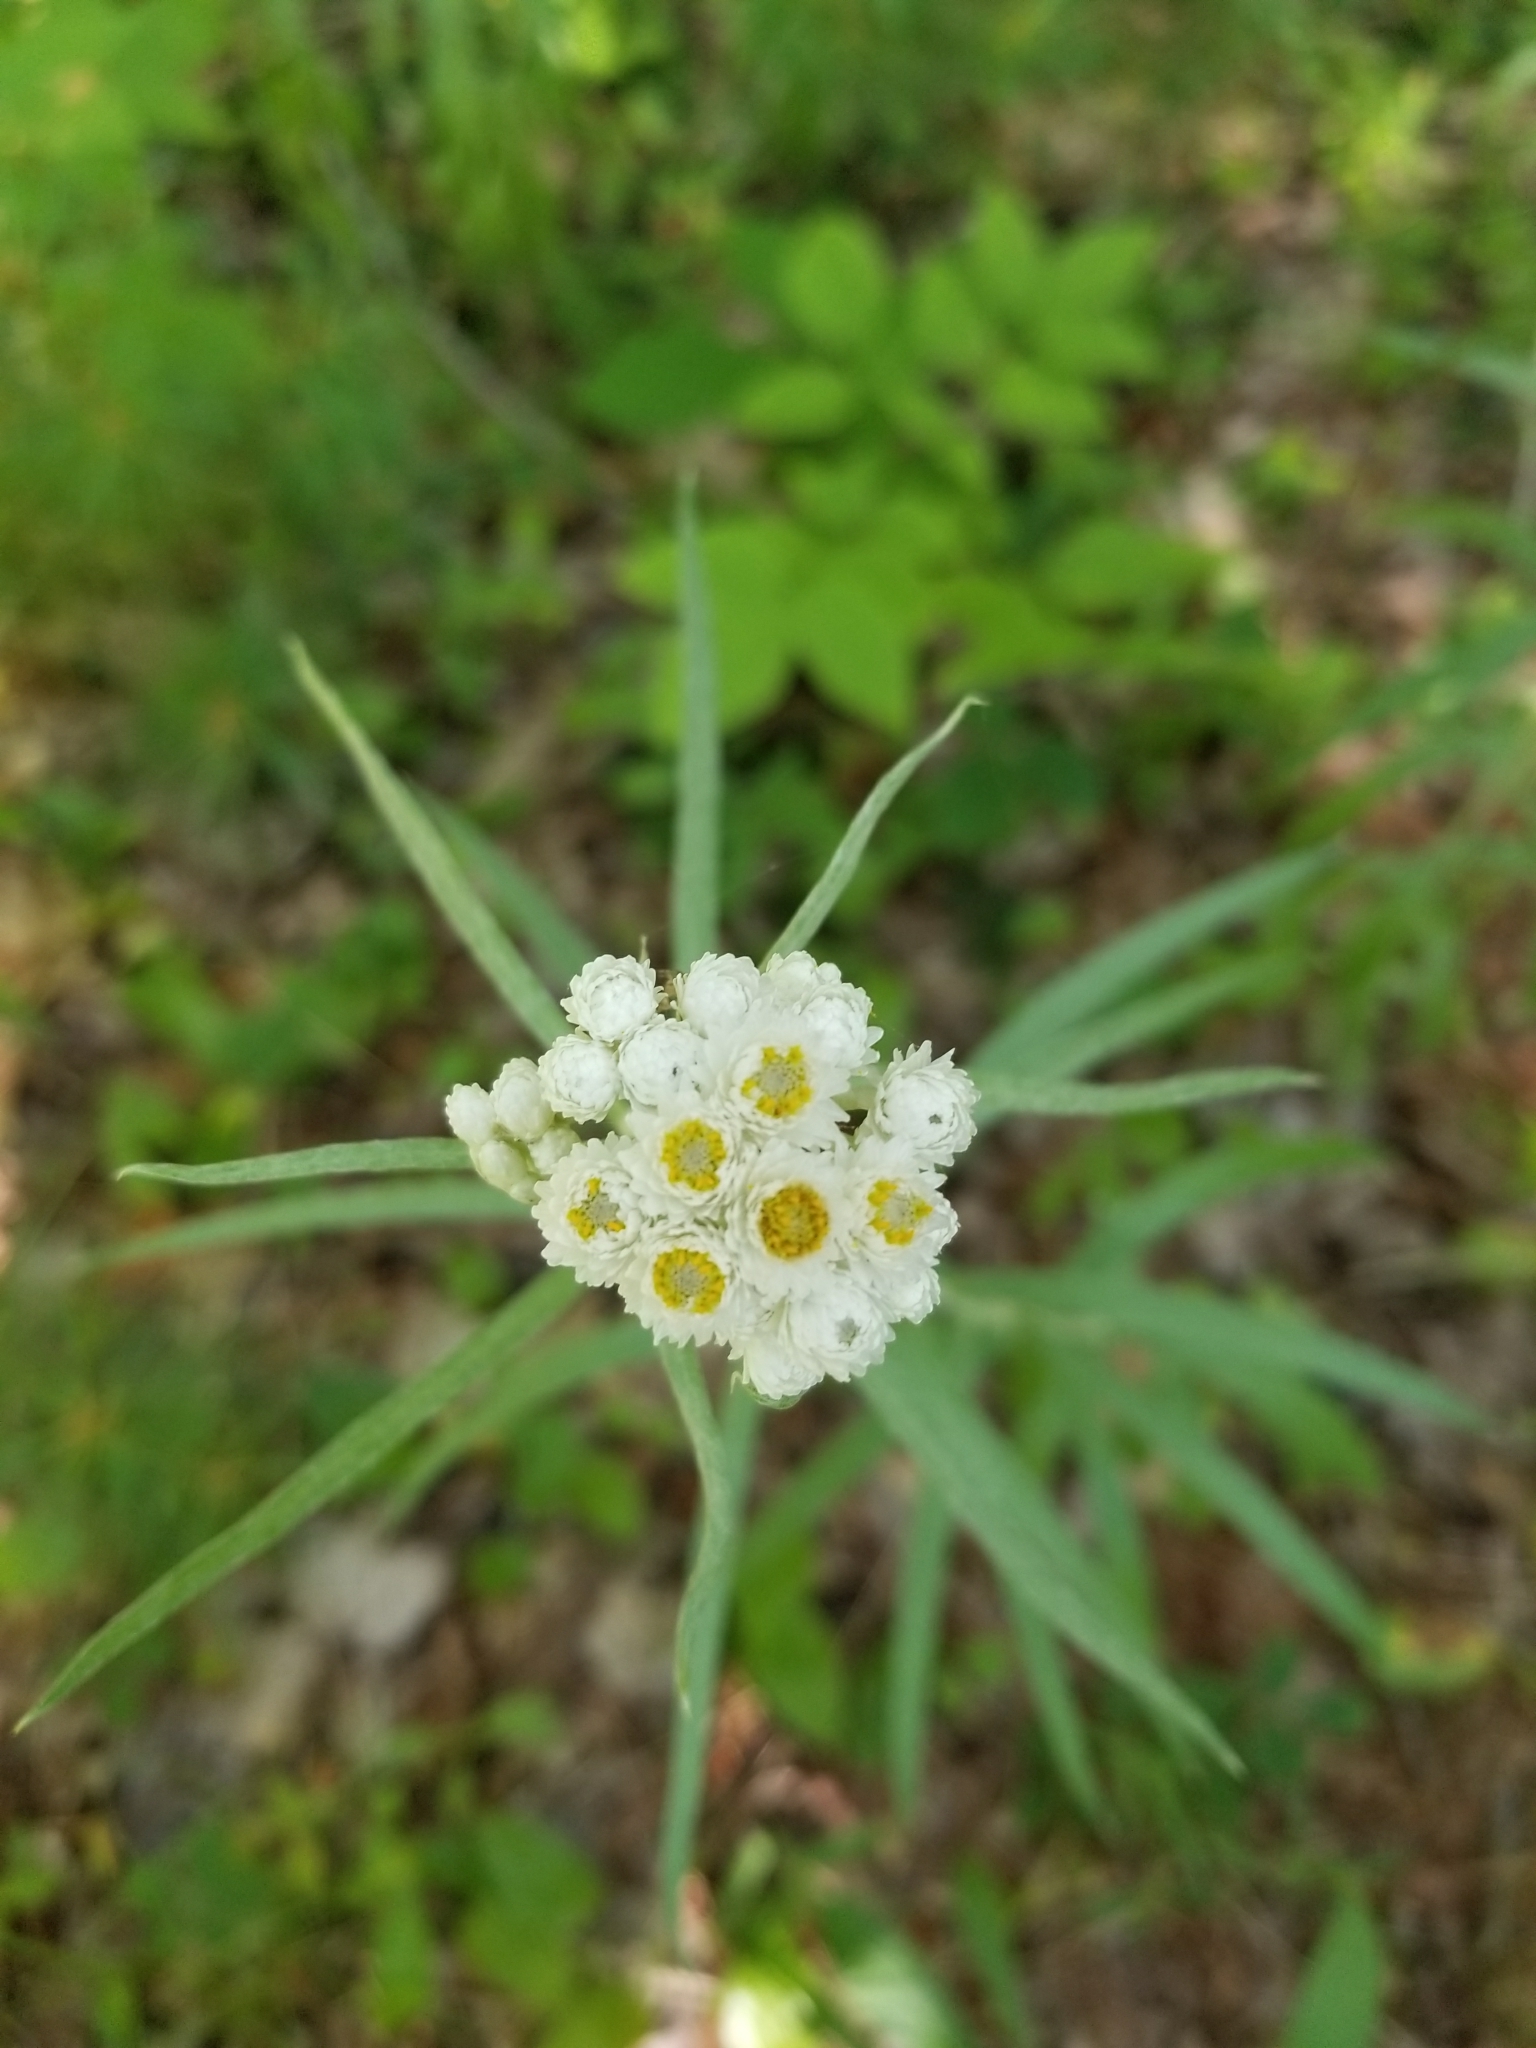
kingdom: Plantae
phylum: Tracheophyta
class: Magnoliopsida
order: Asterales
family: Asteraceae
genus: Anaphalis
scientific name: Anaphalis margaritacea
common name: Pearly everlasting
